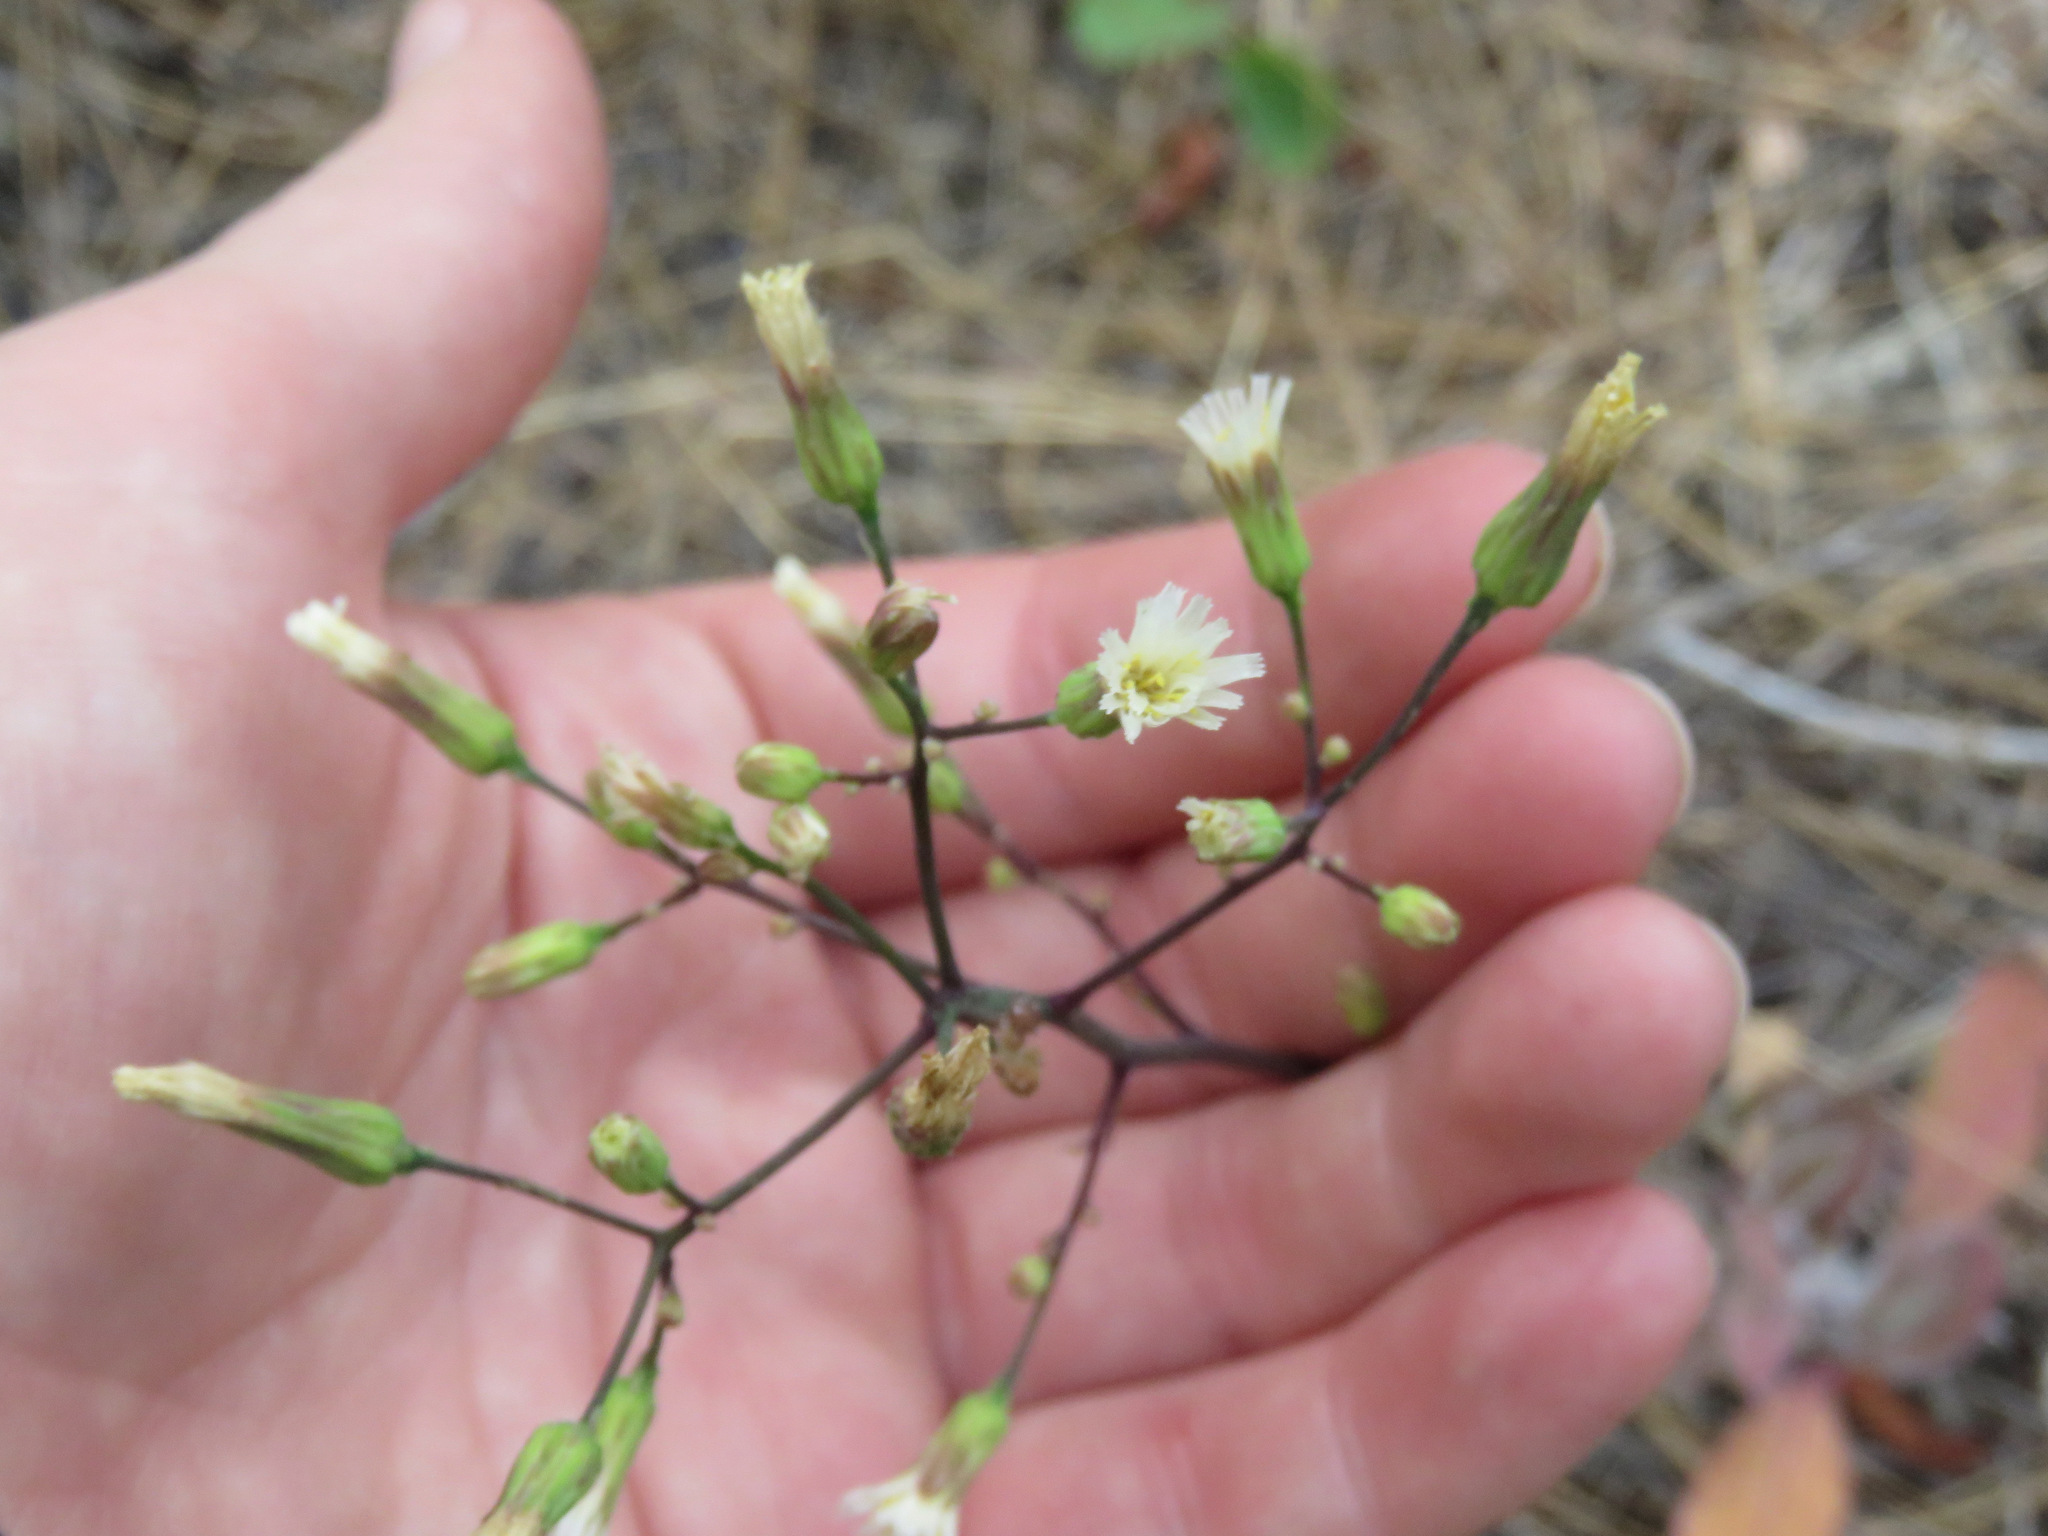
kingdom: Plantae
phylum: Tracheophyta
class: Magnoliopsida
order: Asterales
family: Asteraceae
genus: Hieracium
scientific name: Hieracium albiflorum
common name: White hawkweed
